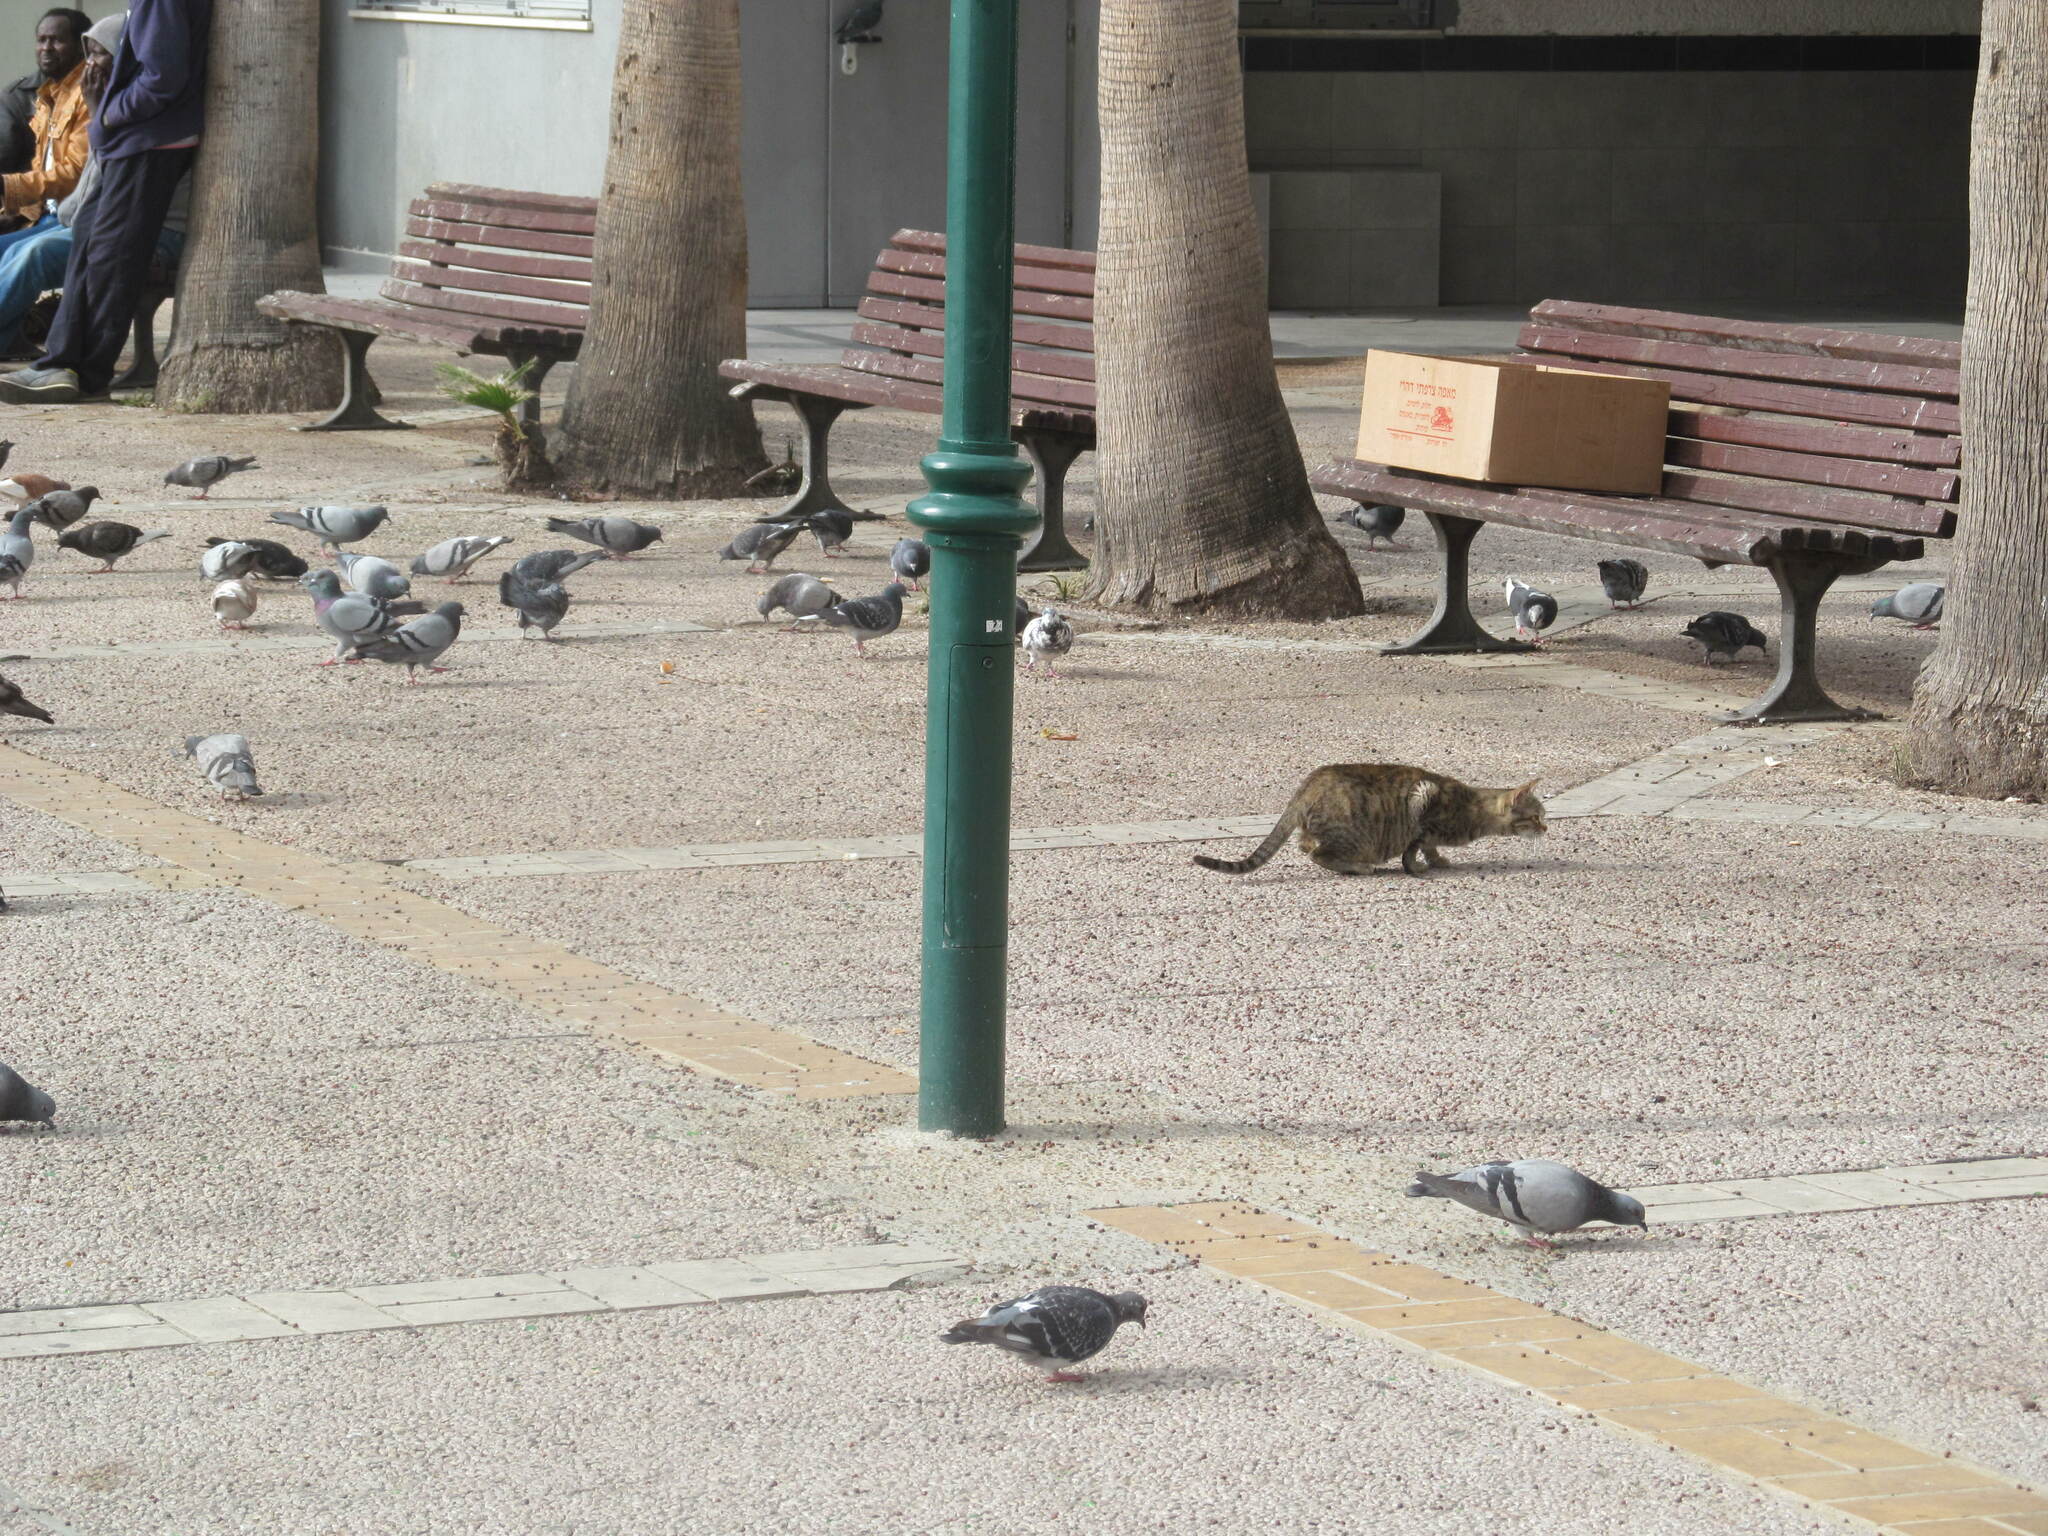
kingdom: Animalia
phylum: Chordata
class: Mammalia
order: Carnivora
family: Felidae
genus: Felis
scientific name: Felis catus
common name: Domestic cat
